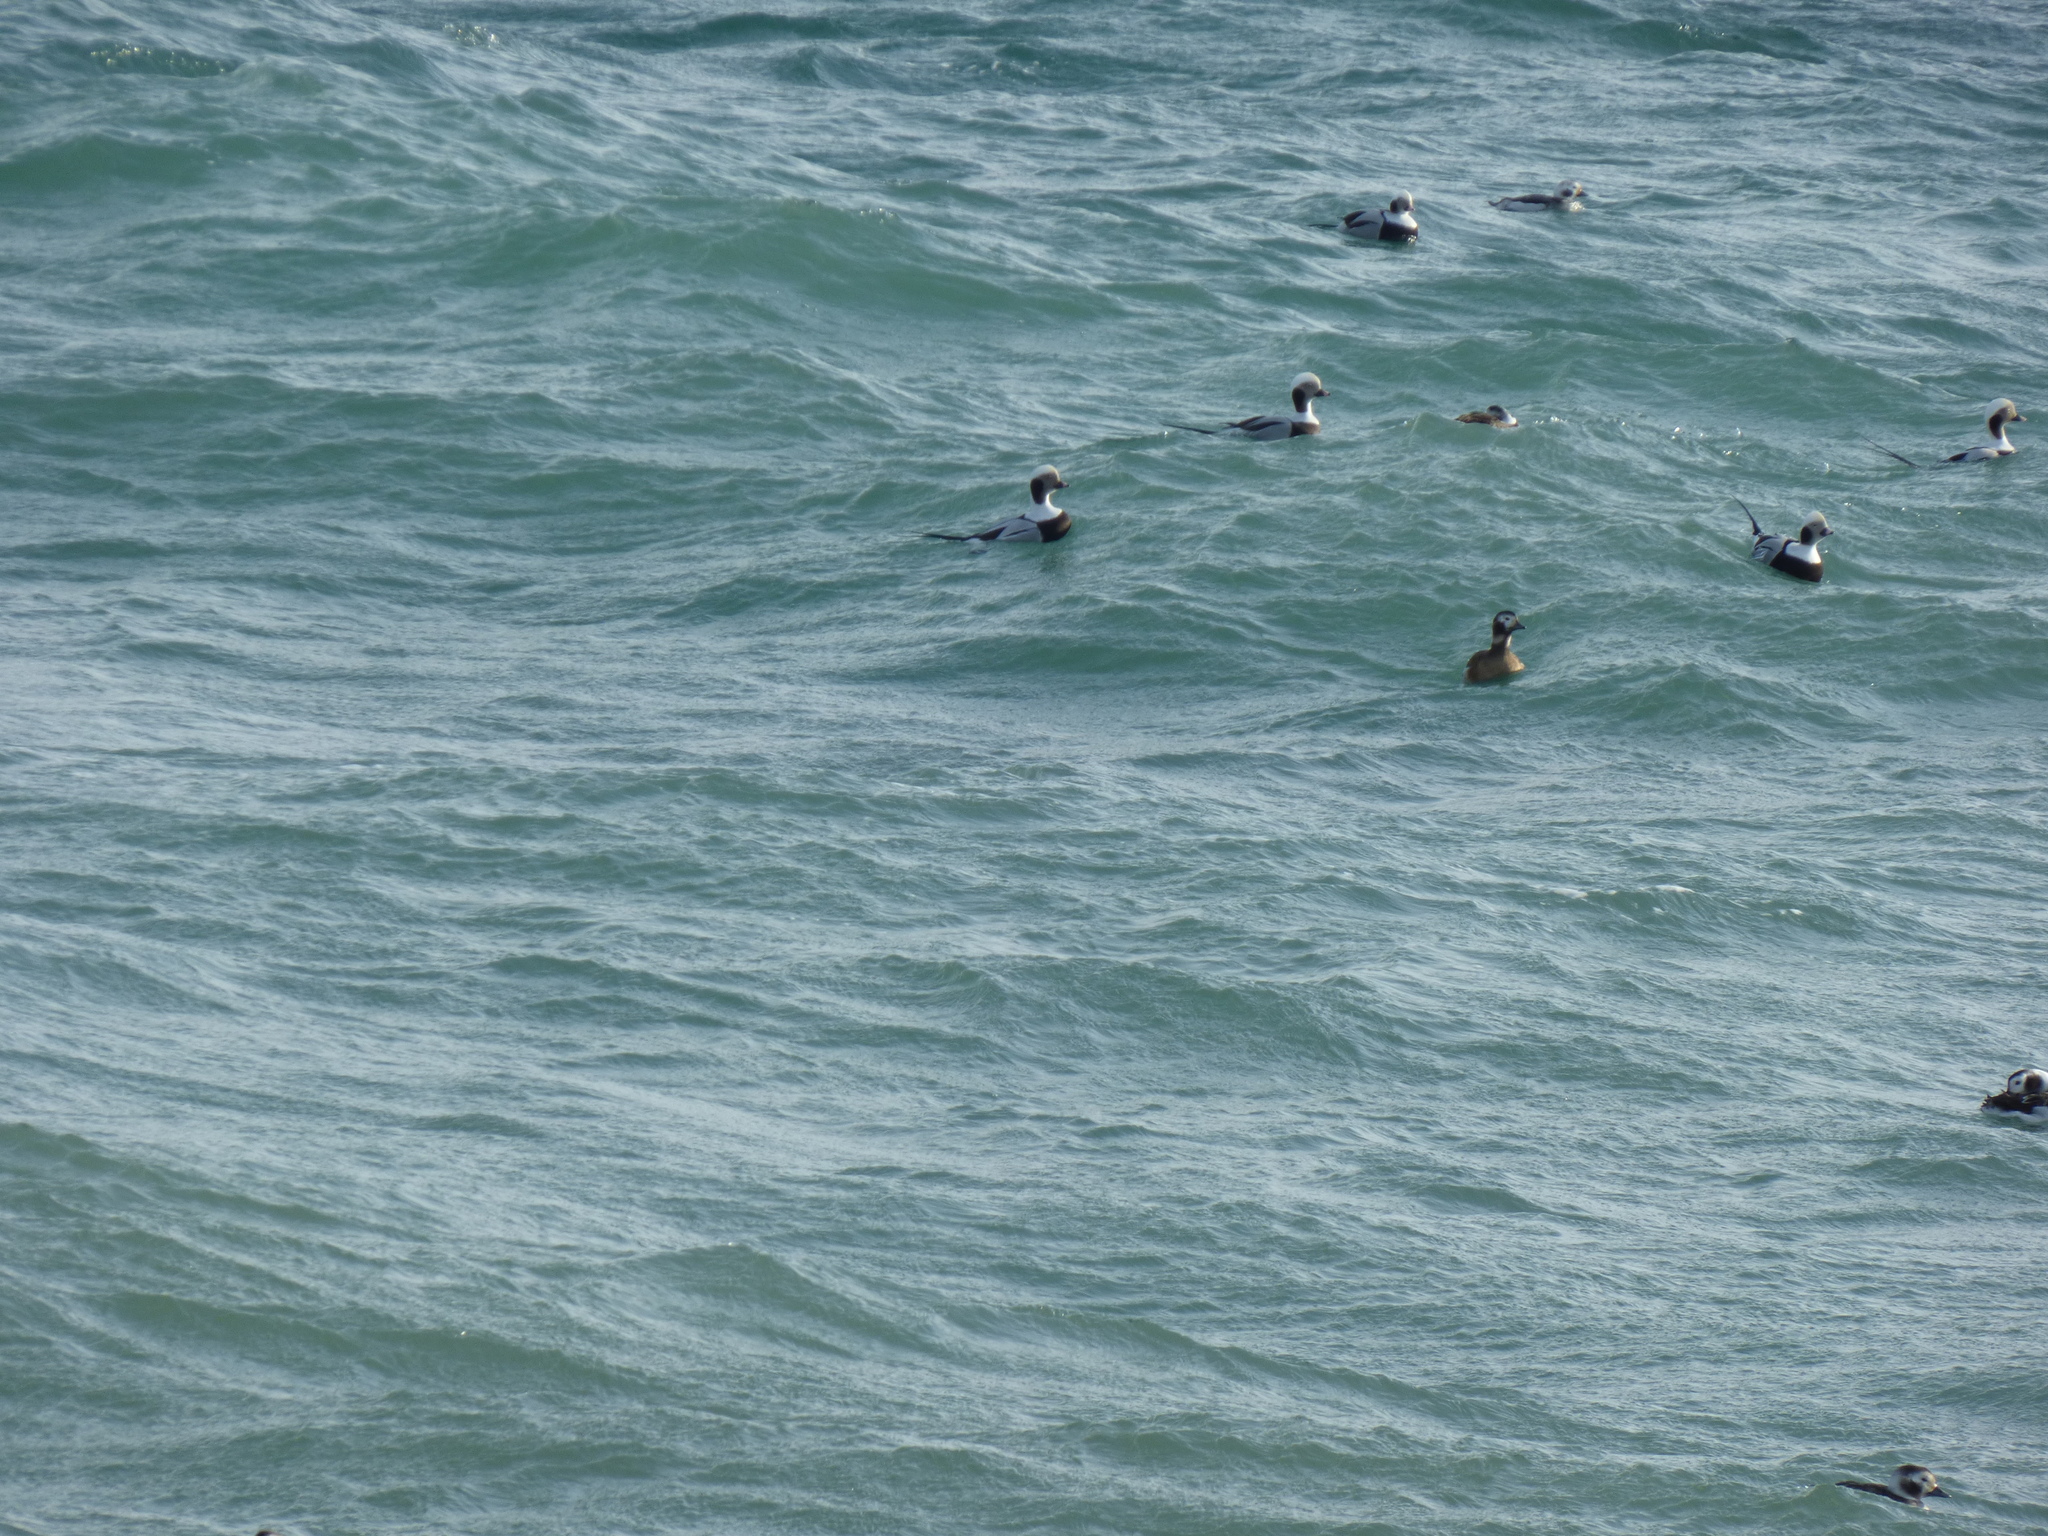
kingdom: Animalia
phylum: Chordata
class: Aves
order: Anseriformes
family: Anatidae
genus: Clangula
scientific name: Clangula hyemalis
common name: Long-tailed duck
